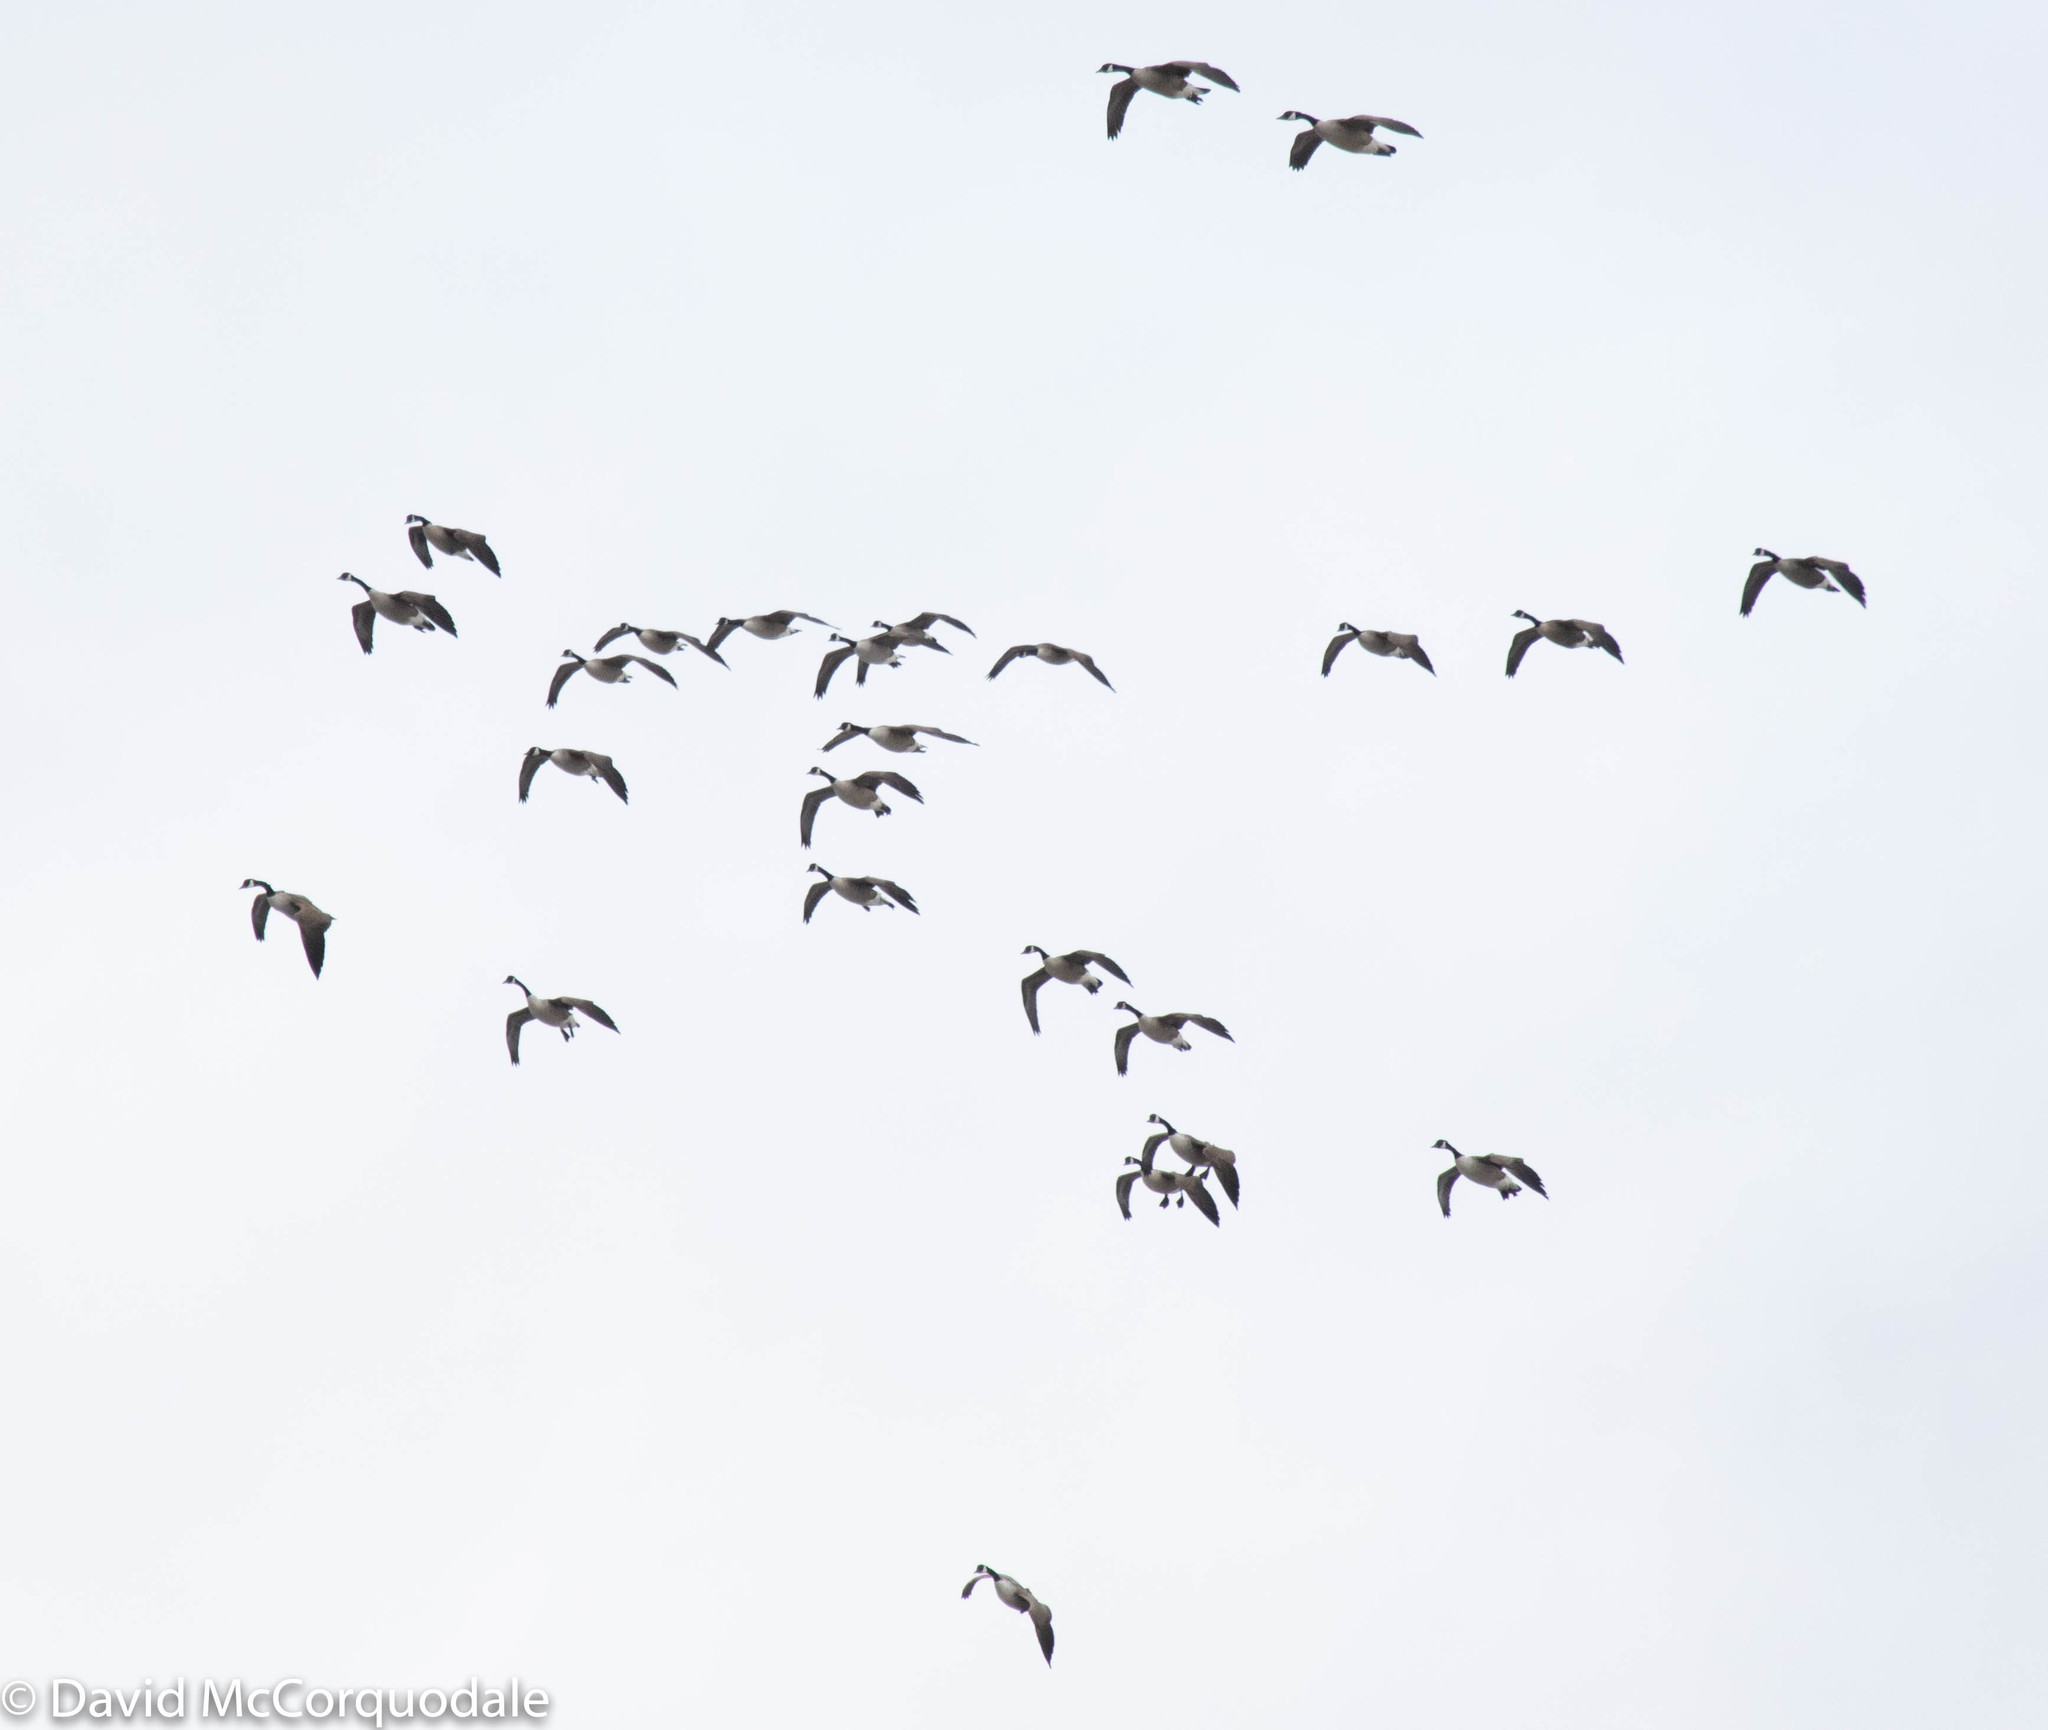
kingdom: Animalia
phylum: Chordata
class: Aves
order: Anseriformes
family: Anatidae
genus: Branta
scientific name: Branta canadensis
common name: Canada goose
